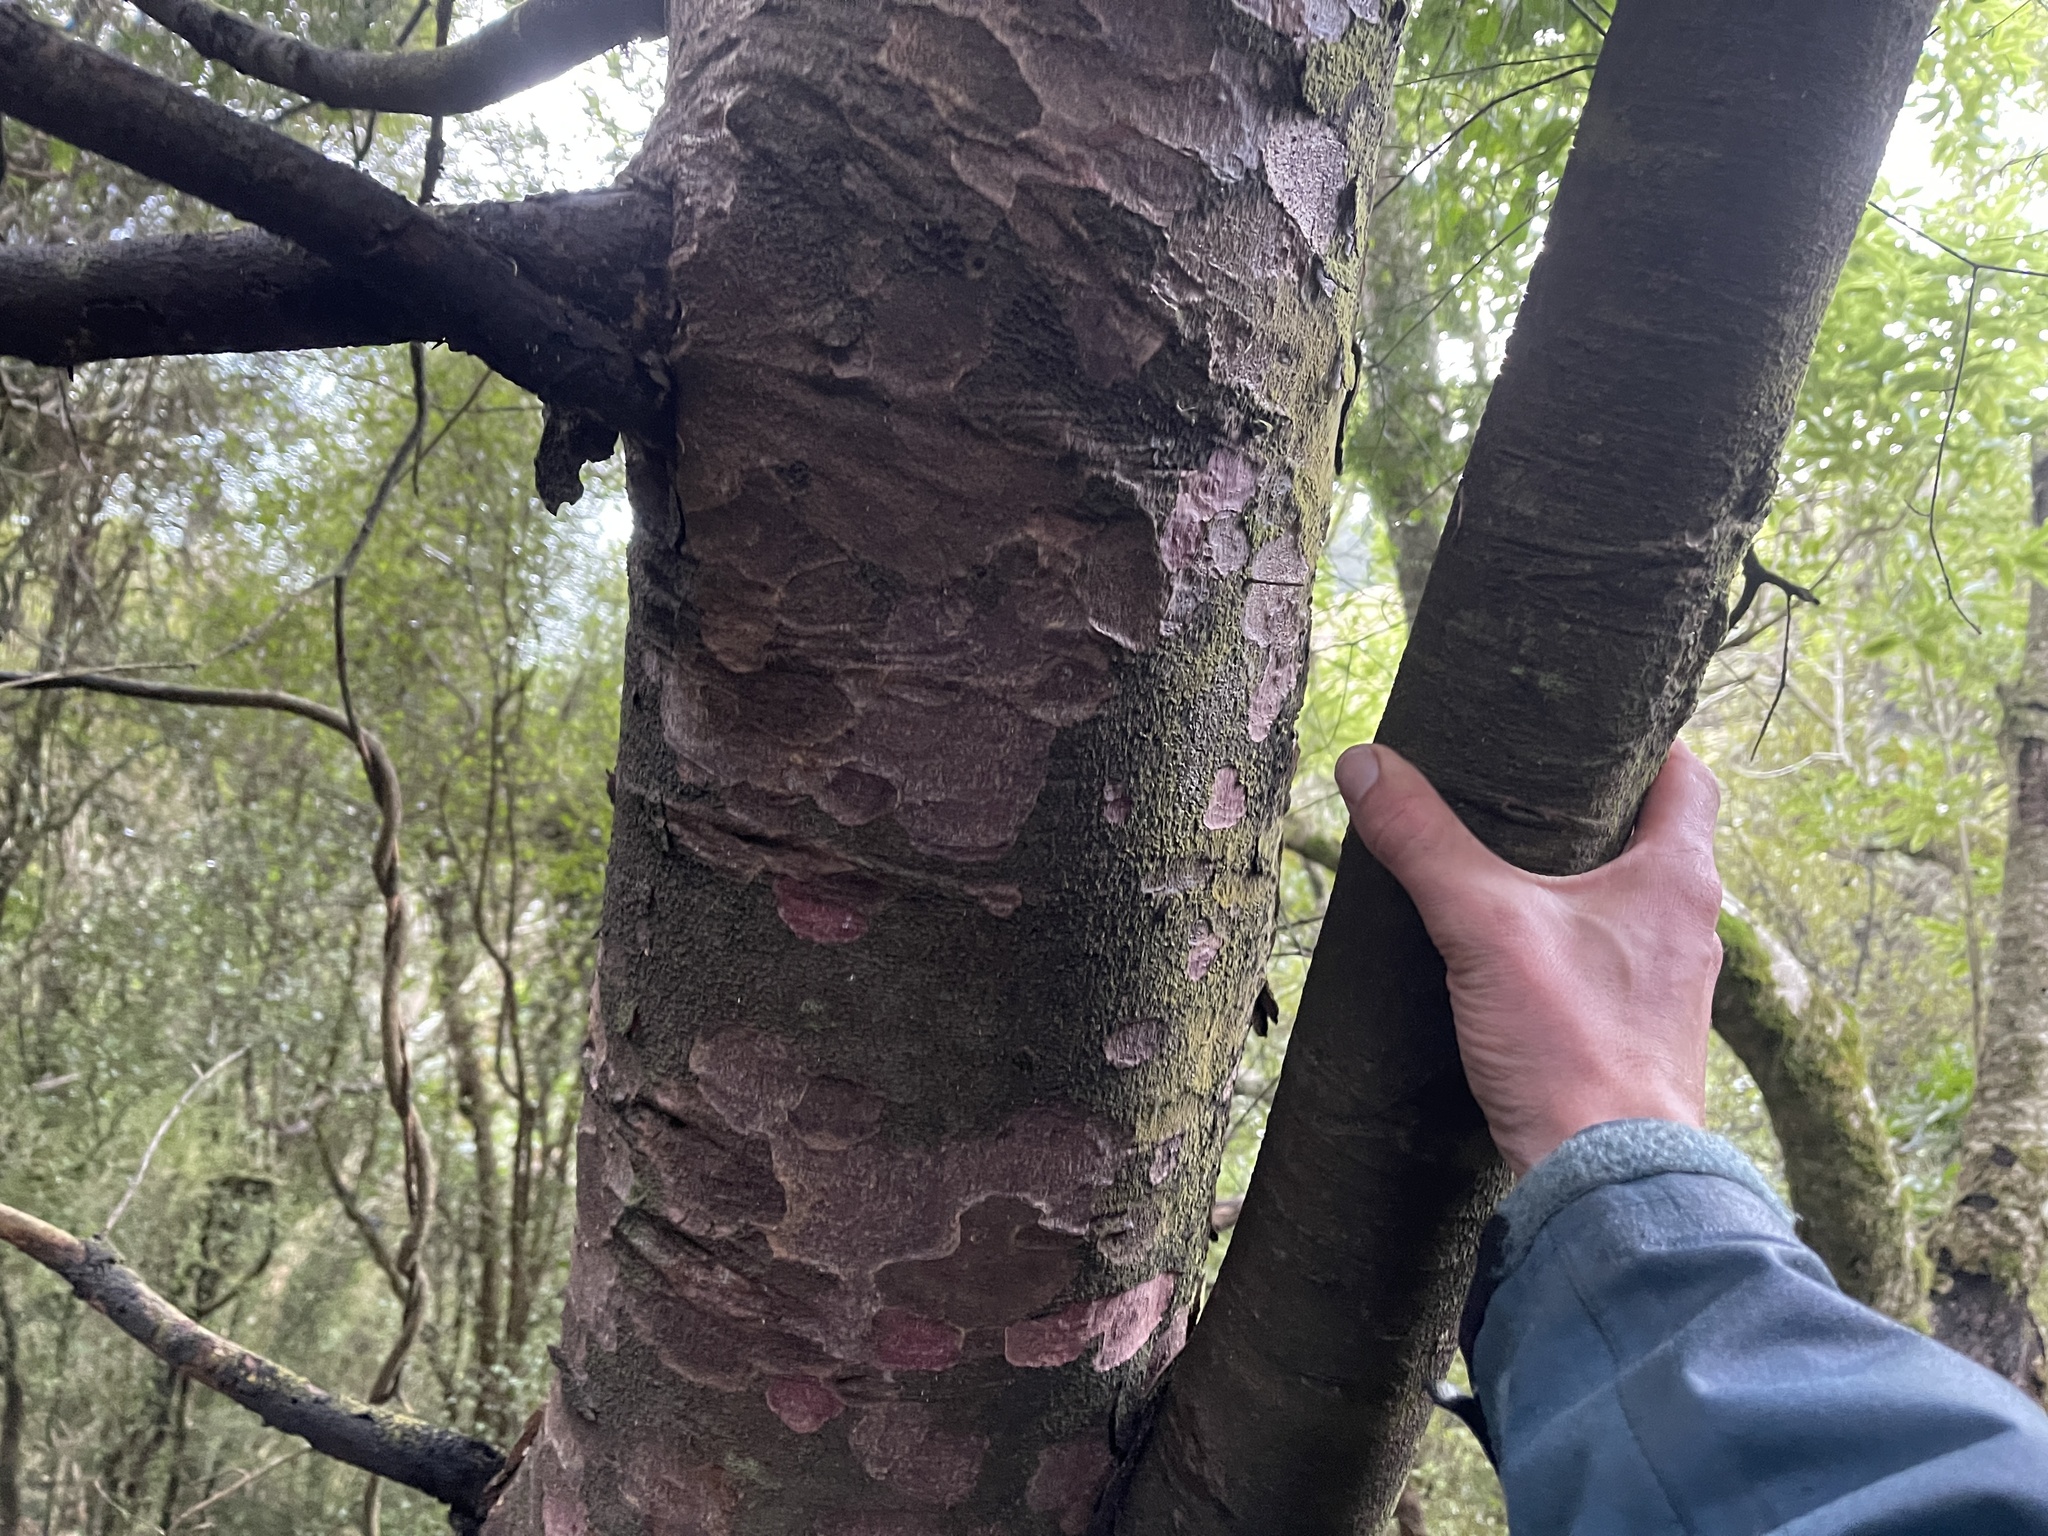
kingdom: Plantae
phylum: Tracheophyta
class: Pinopsida
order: Pinales
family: Podocarpaceae
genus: Prumnopitys
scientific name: Prumnopitys taxifolia
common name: Matai
